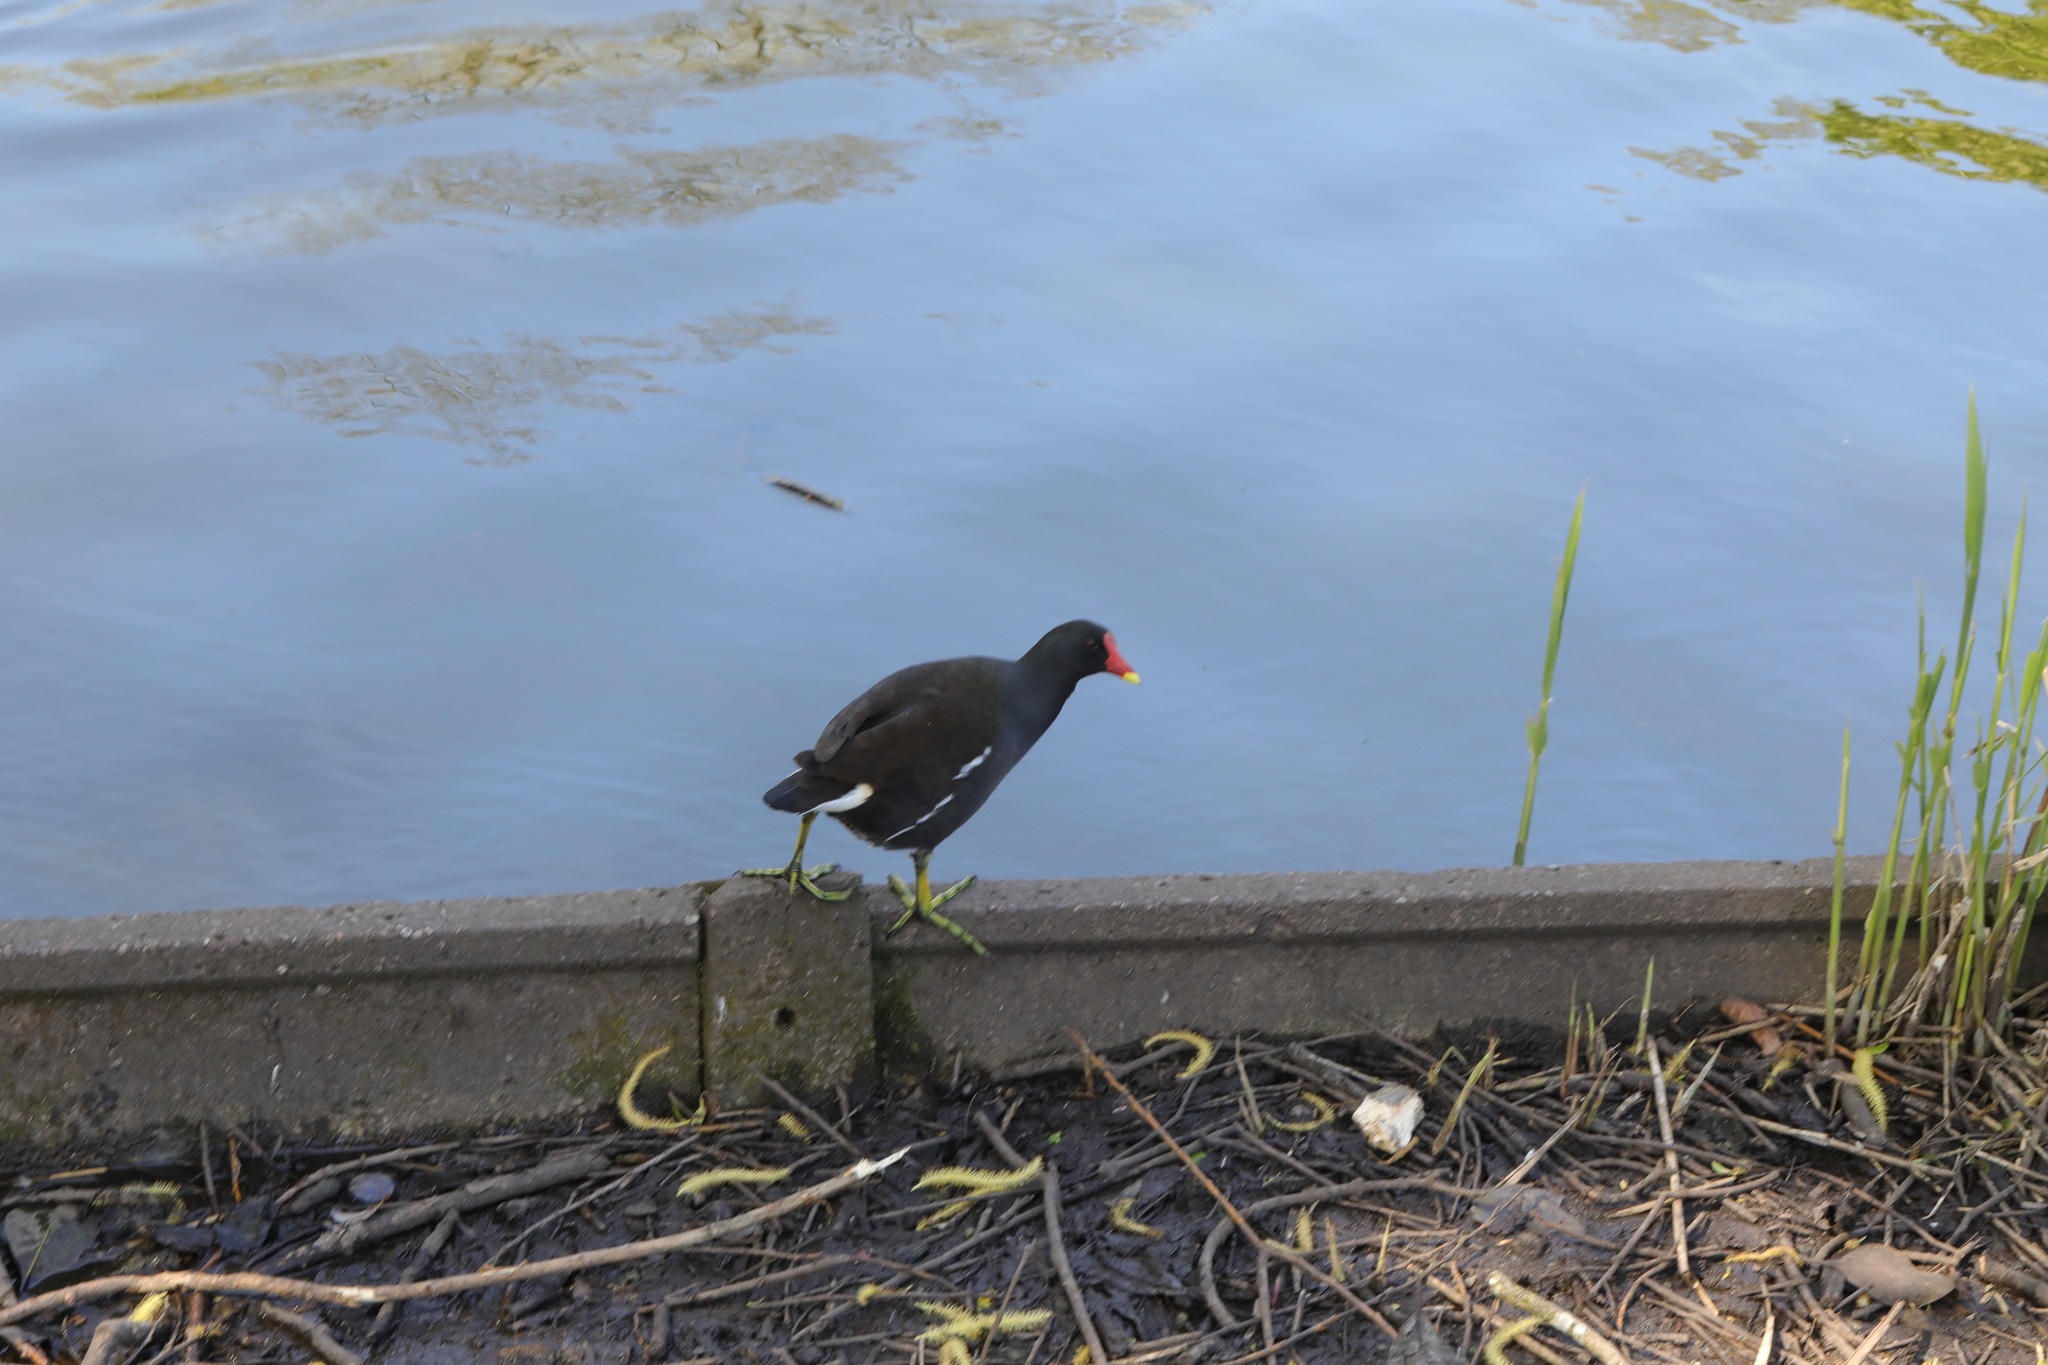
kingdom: Animalia
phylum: Chordata
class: Aves
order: Gruiformes
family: Rallidae
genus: Gallinula
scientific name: Gallinula chloropus
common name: Common moorhen
